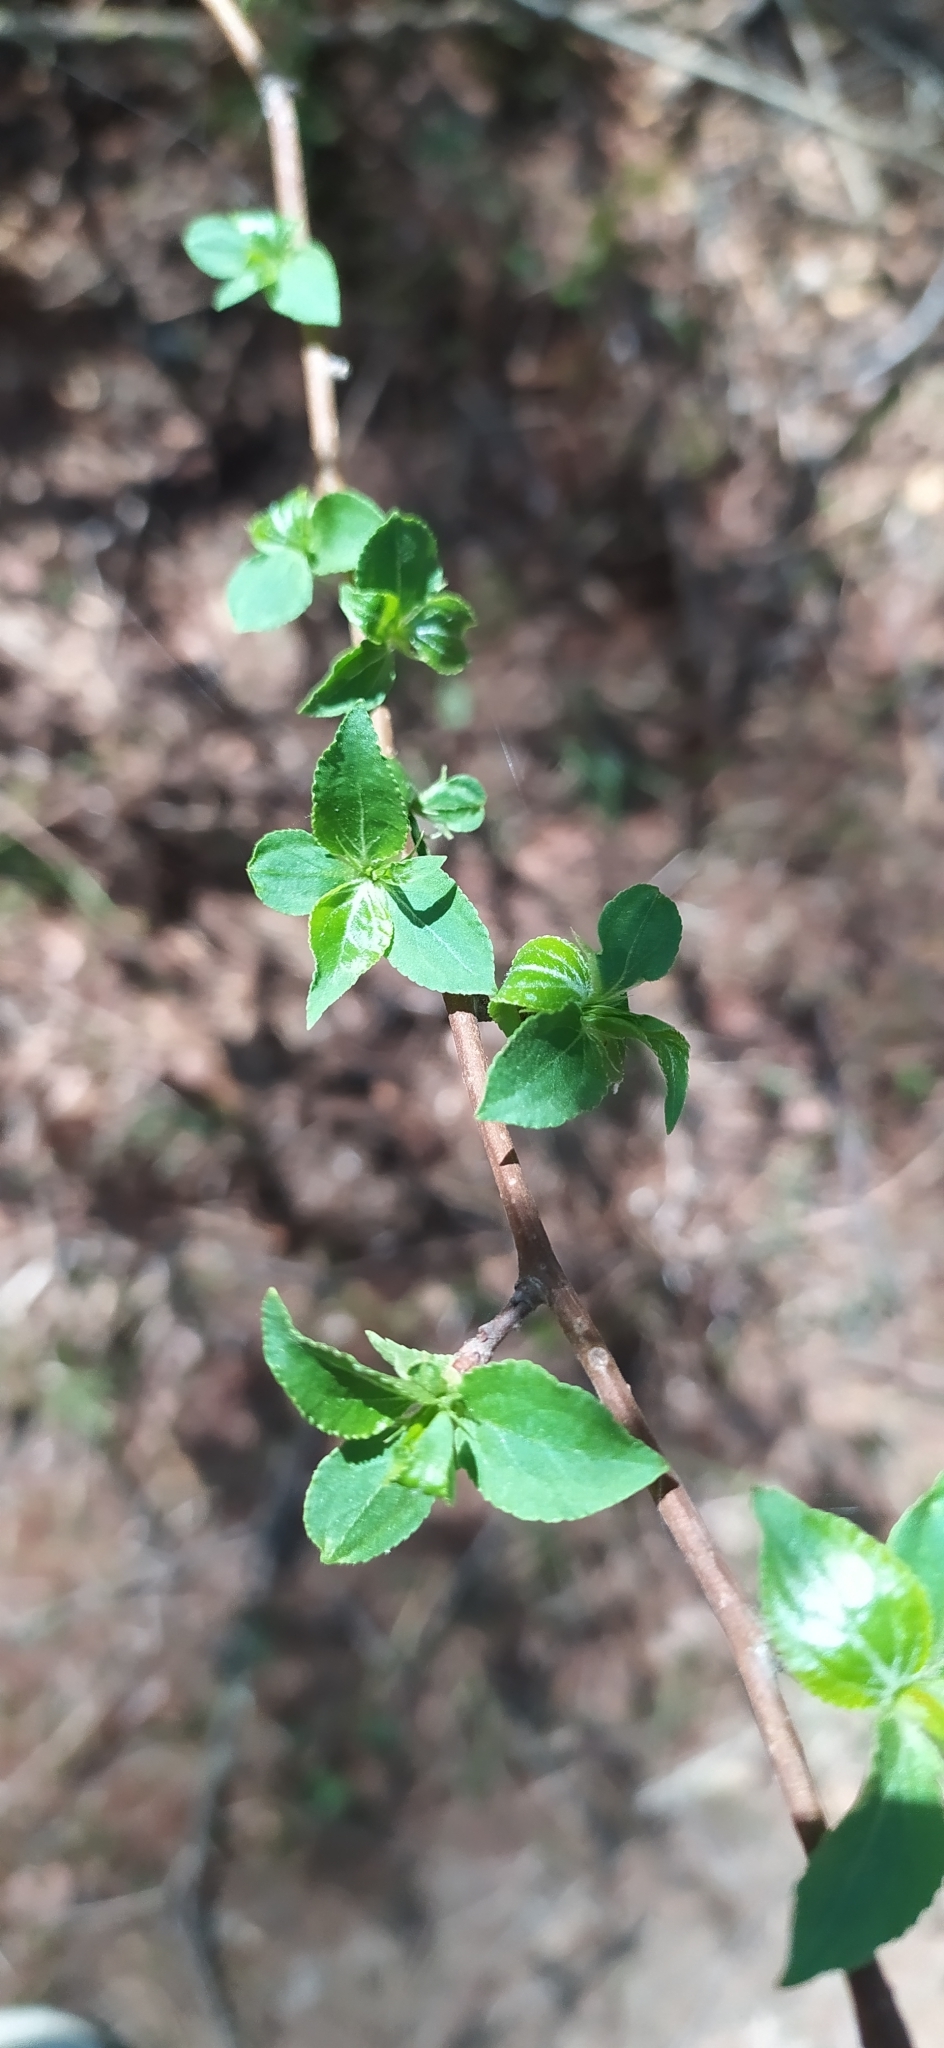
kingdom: Plantae
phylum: Tracheophyta
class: Magnoliopsida
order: Rosales
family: Rosaceae
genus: Malus
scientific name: Malus baccata
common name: Siberian crab
